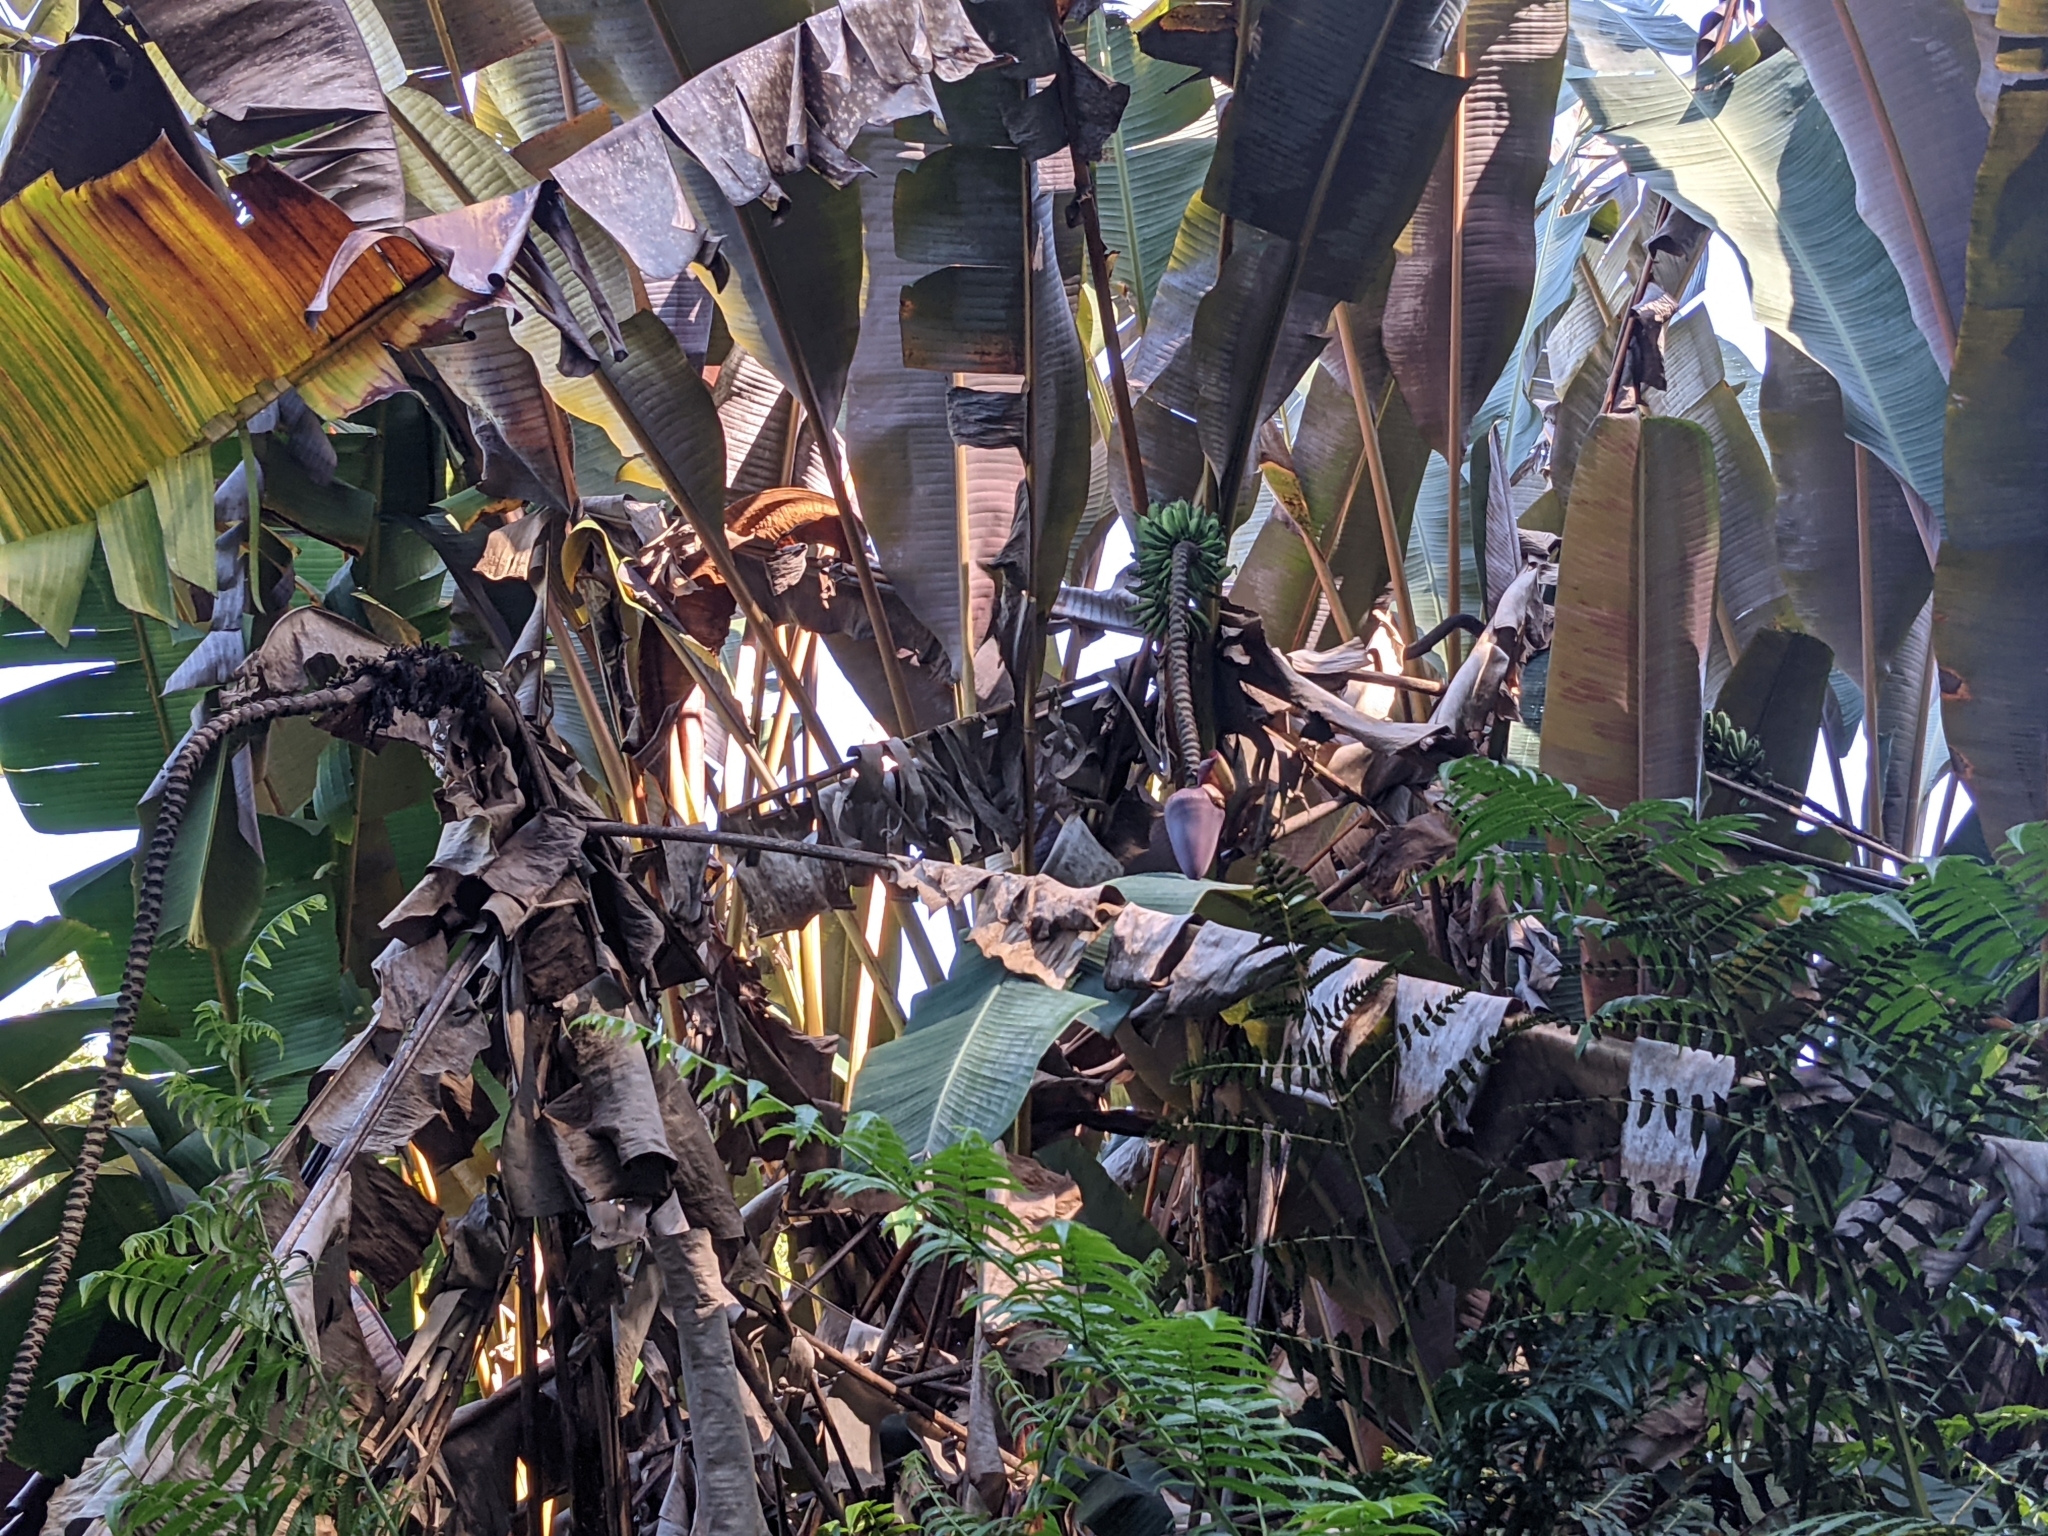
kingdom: Plantae
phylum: Tracheophyta
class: Liliopsida
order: Zingiberales
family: Musaceae
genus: Musa
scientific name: Musa acuminata
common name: Edible banana
